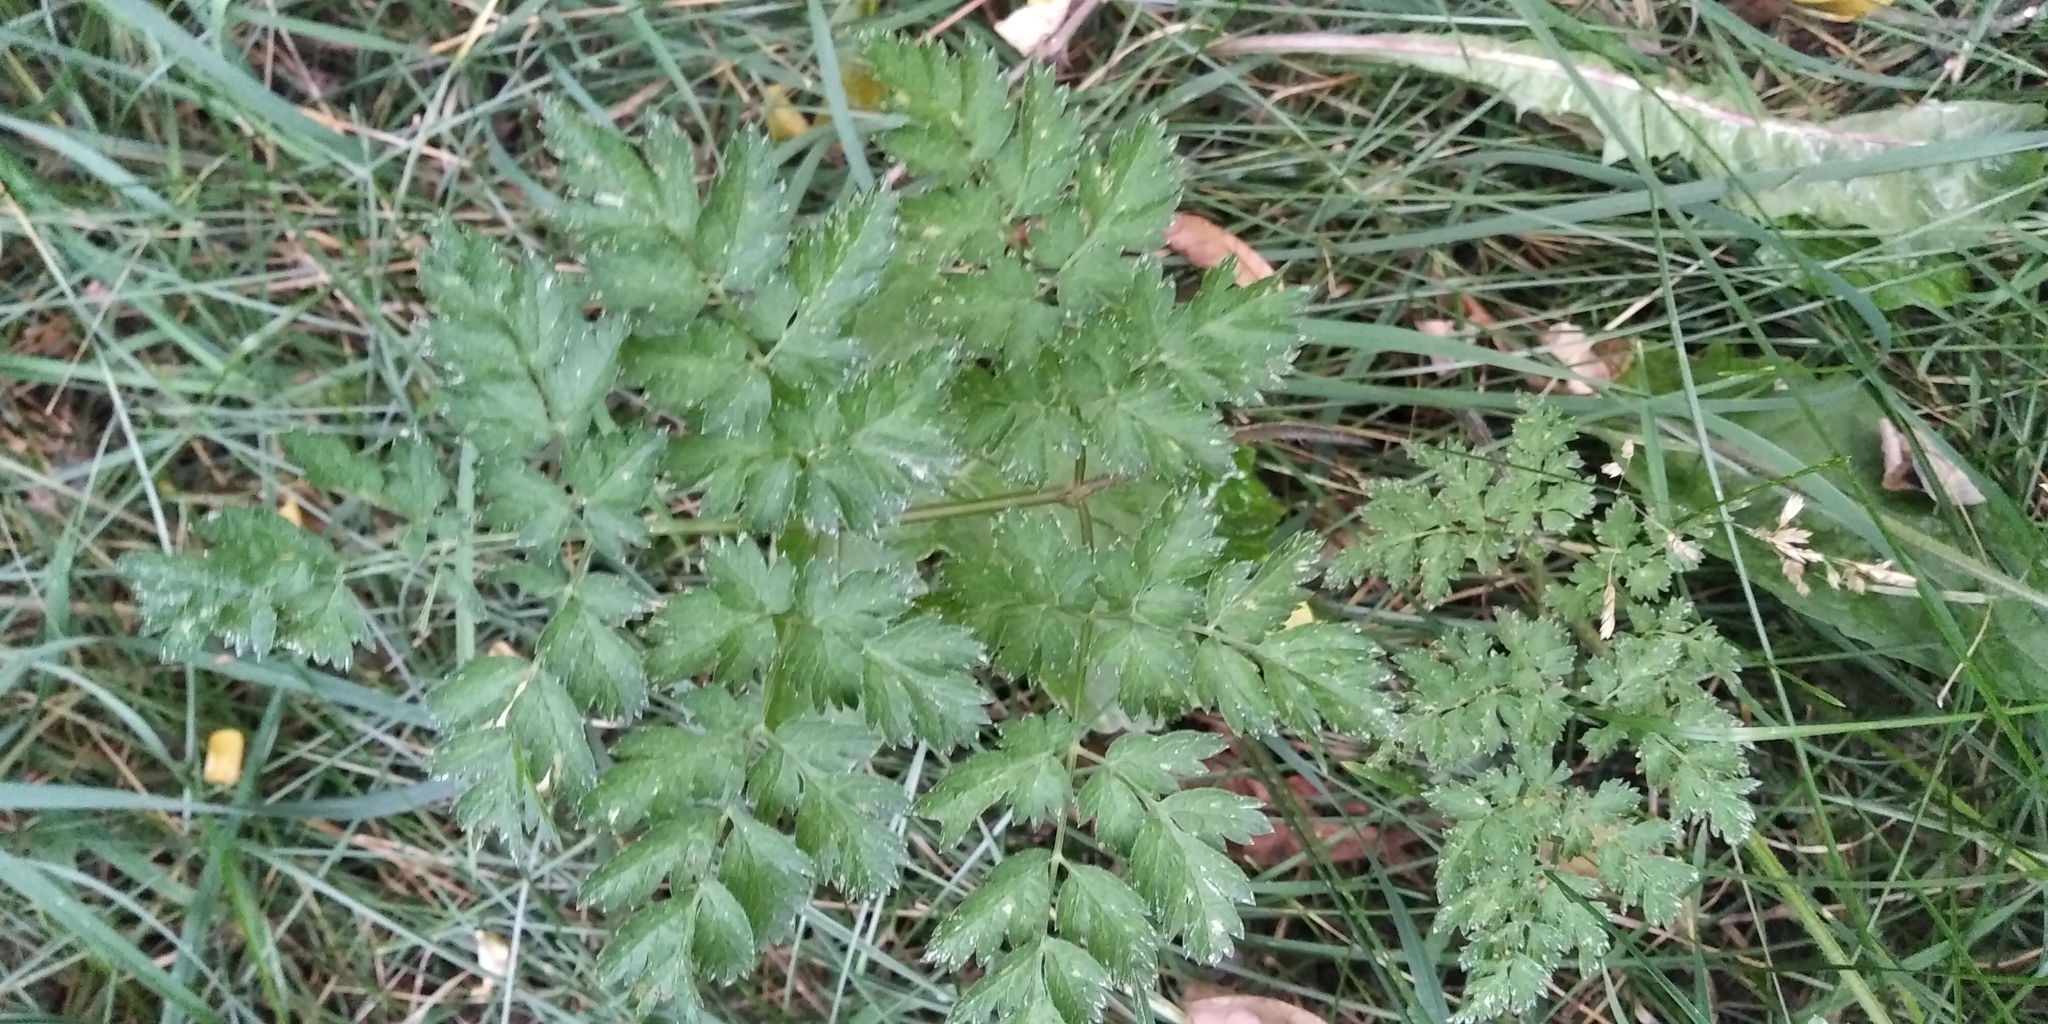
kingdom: Plantae
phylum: Tracheophyta
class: Magnoliopsida
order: Apiales
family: Apiaceae
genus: Anthriscus
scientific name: Anthriscus sylvestris
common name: Cow parsley
